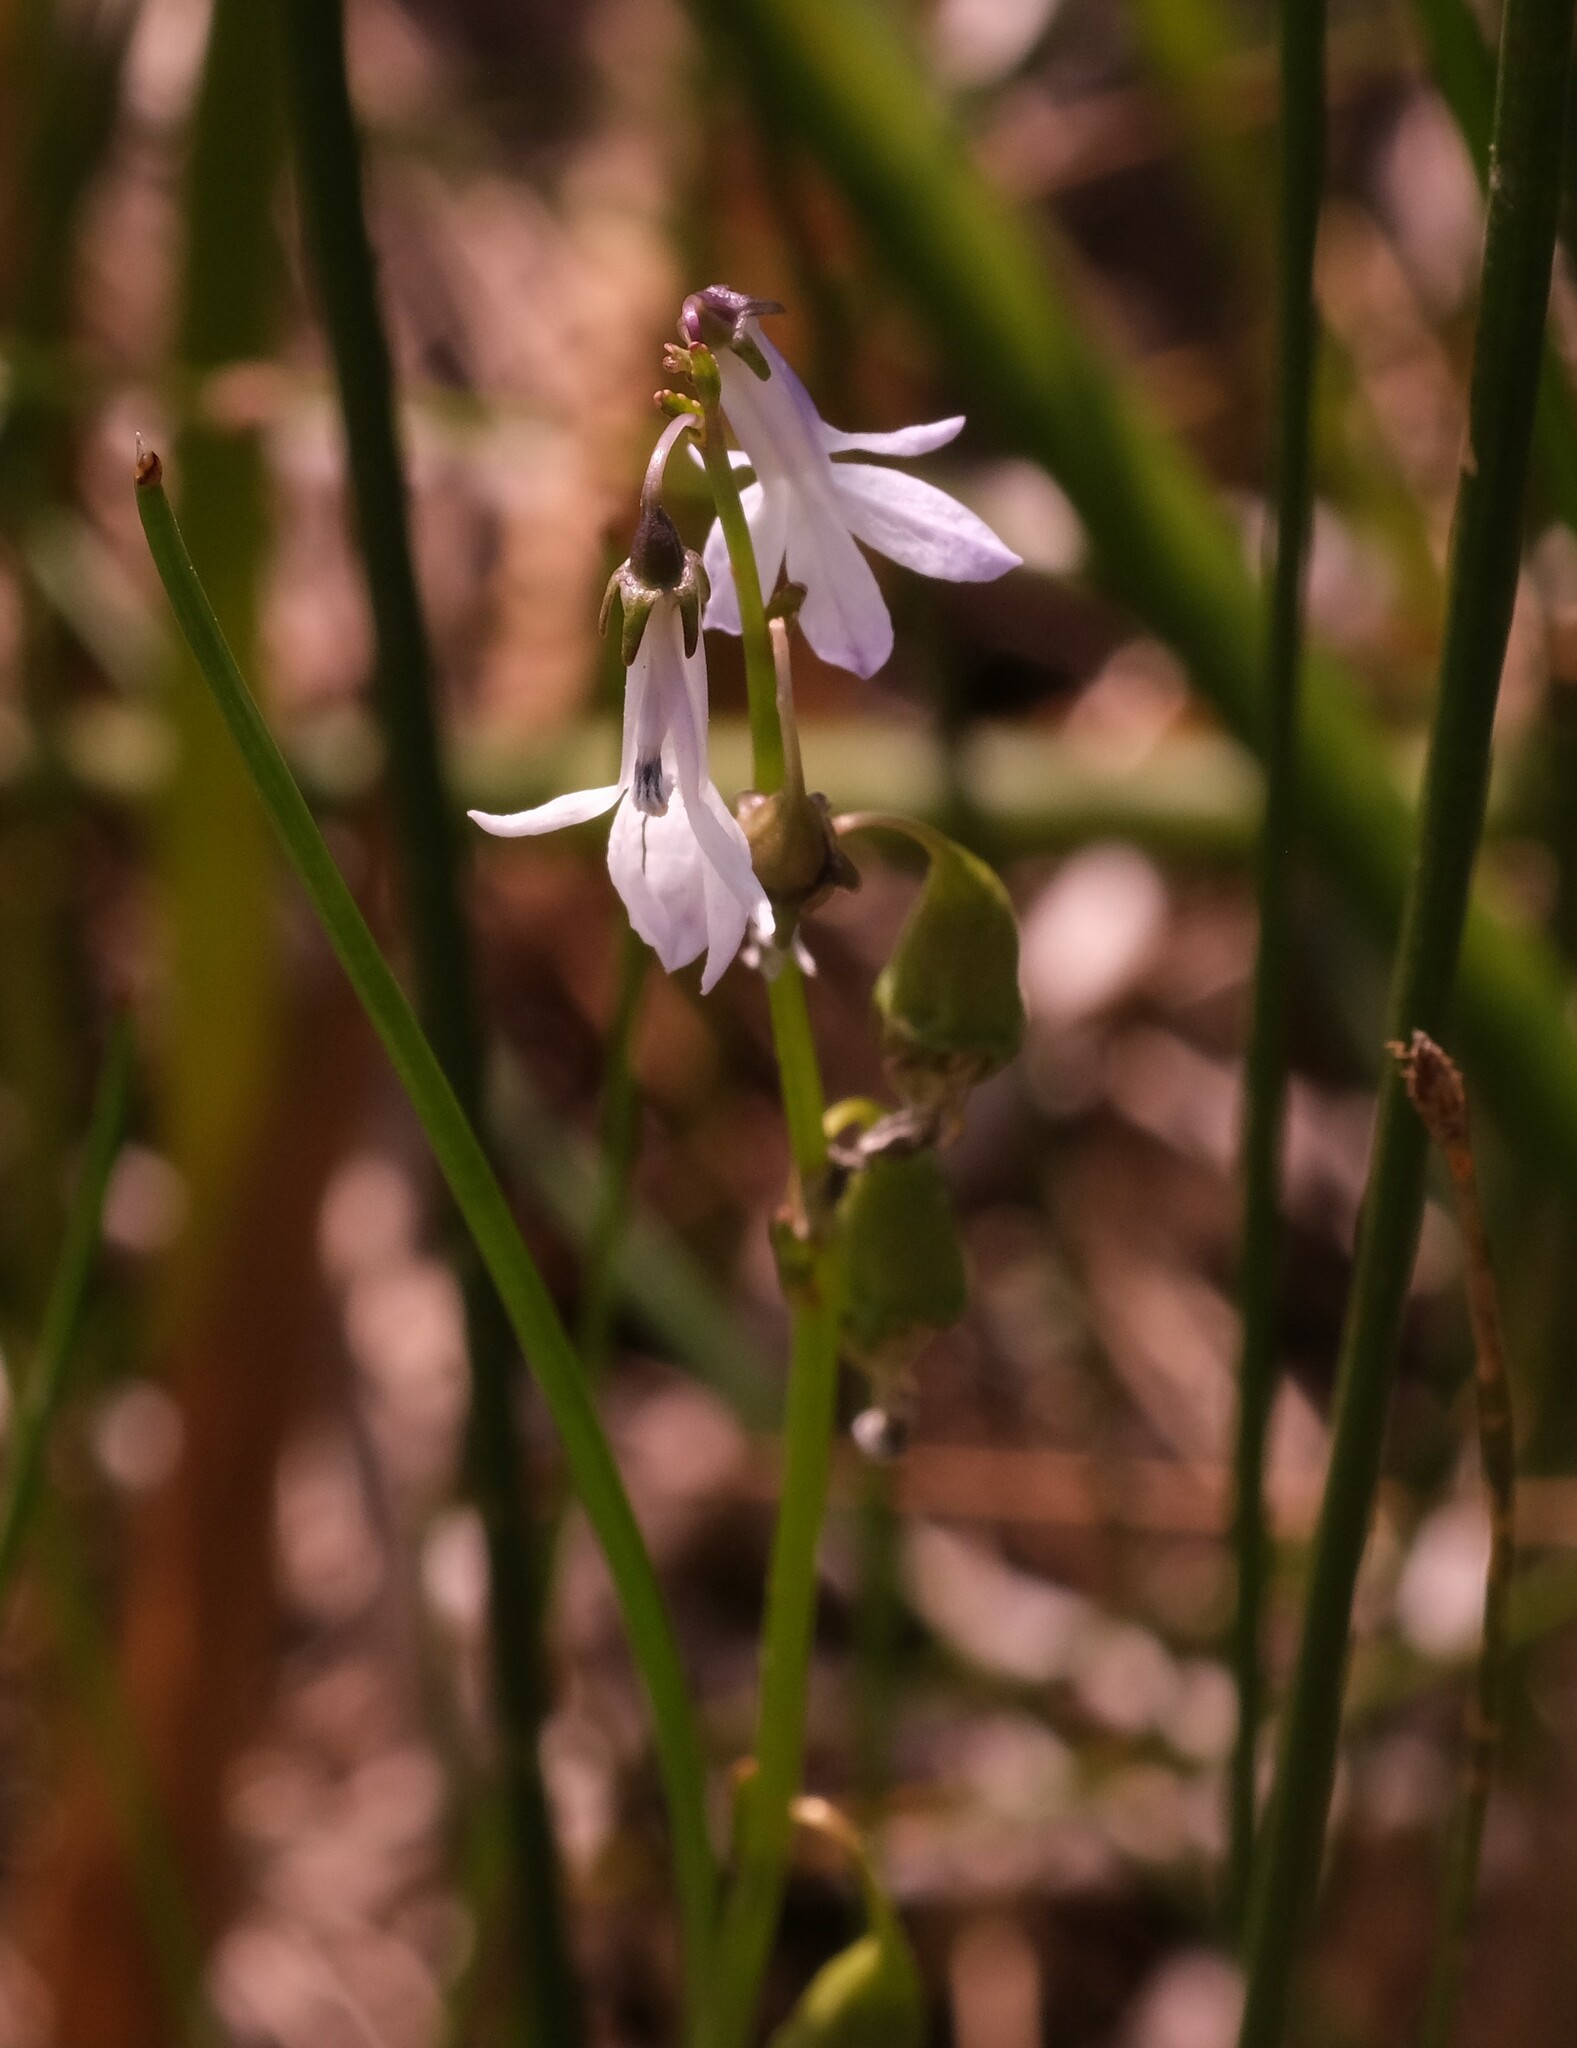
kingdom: Plantae
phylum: Tracheophyta
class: Magnoliopsida
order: Asterales
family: Campanulaceae
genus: Lobelia
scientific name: Lobelia dortmanna
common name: Water lobelia
